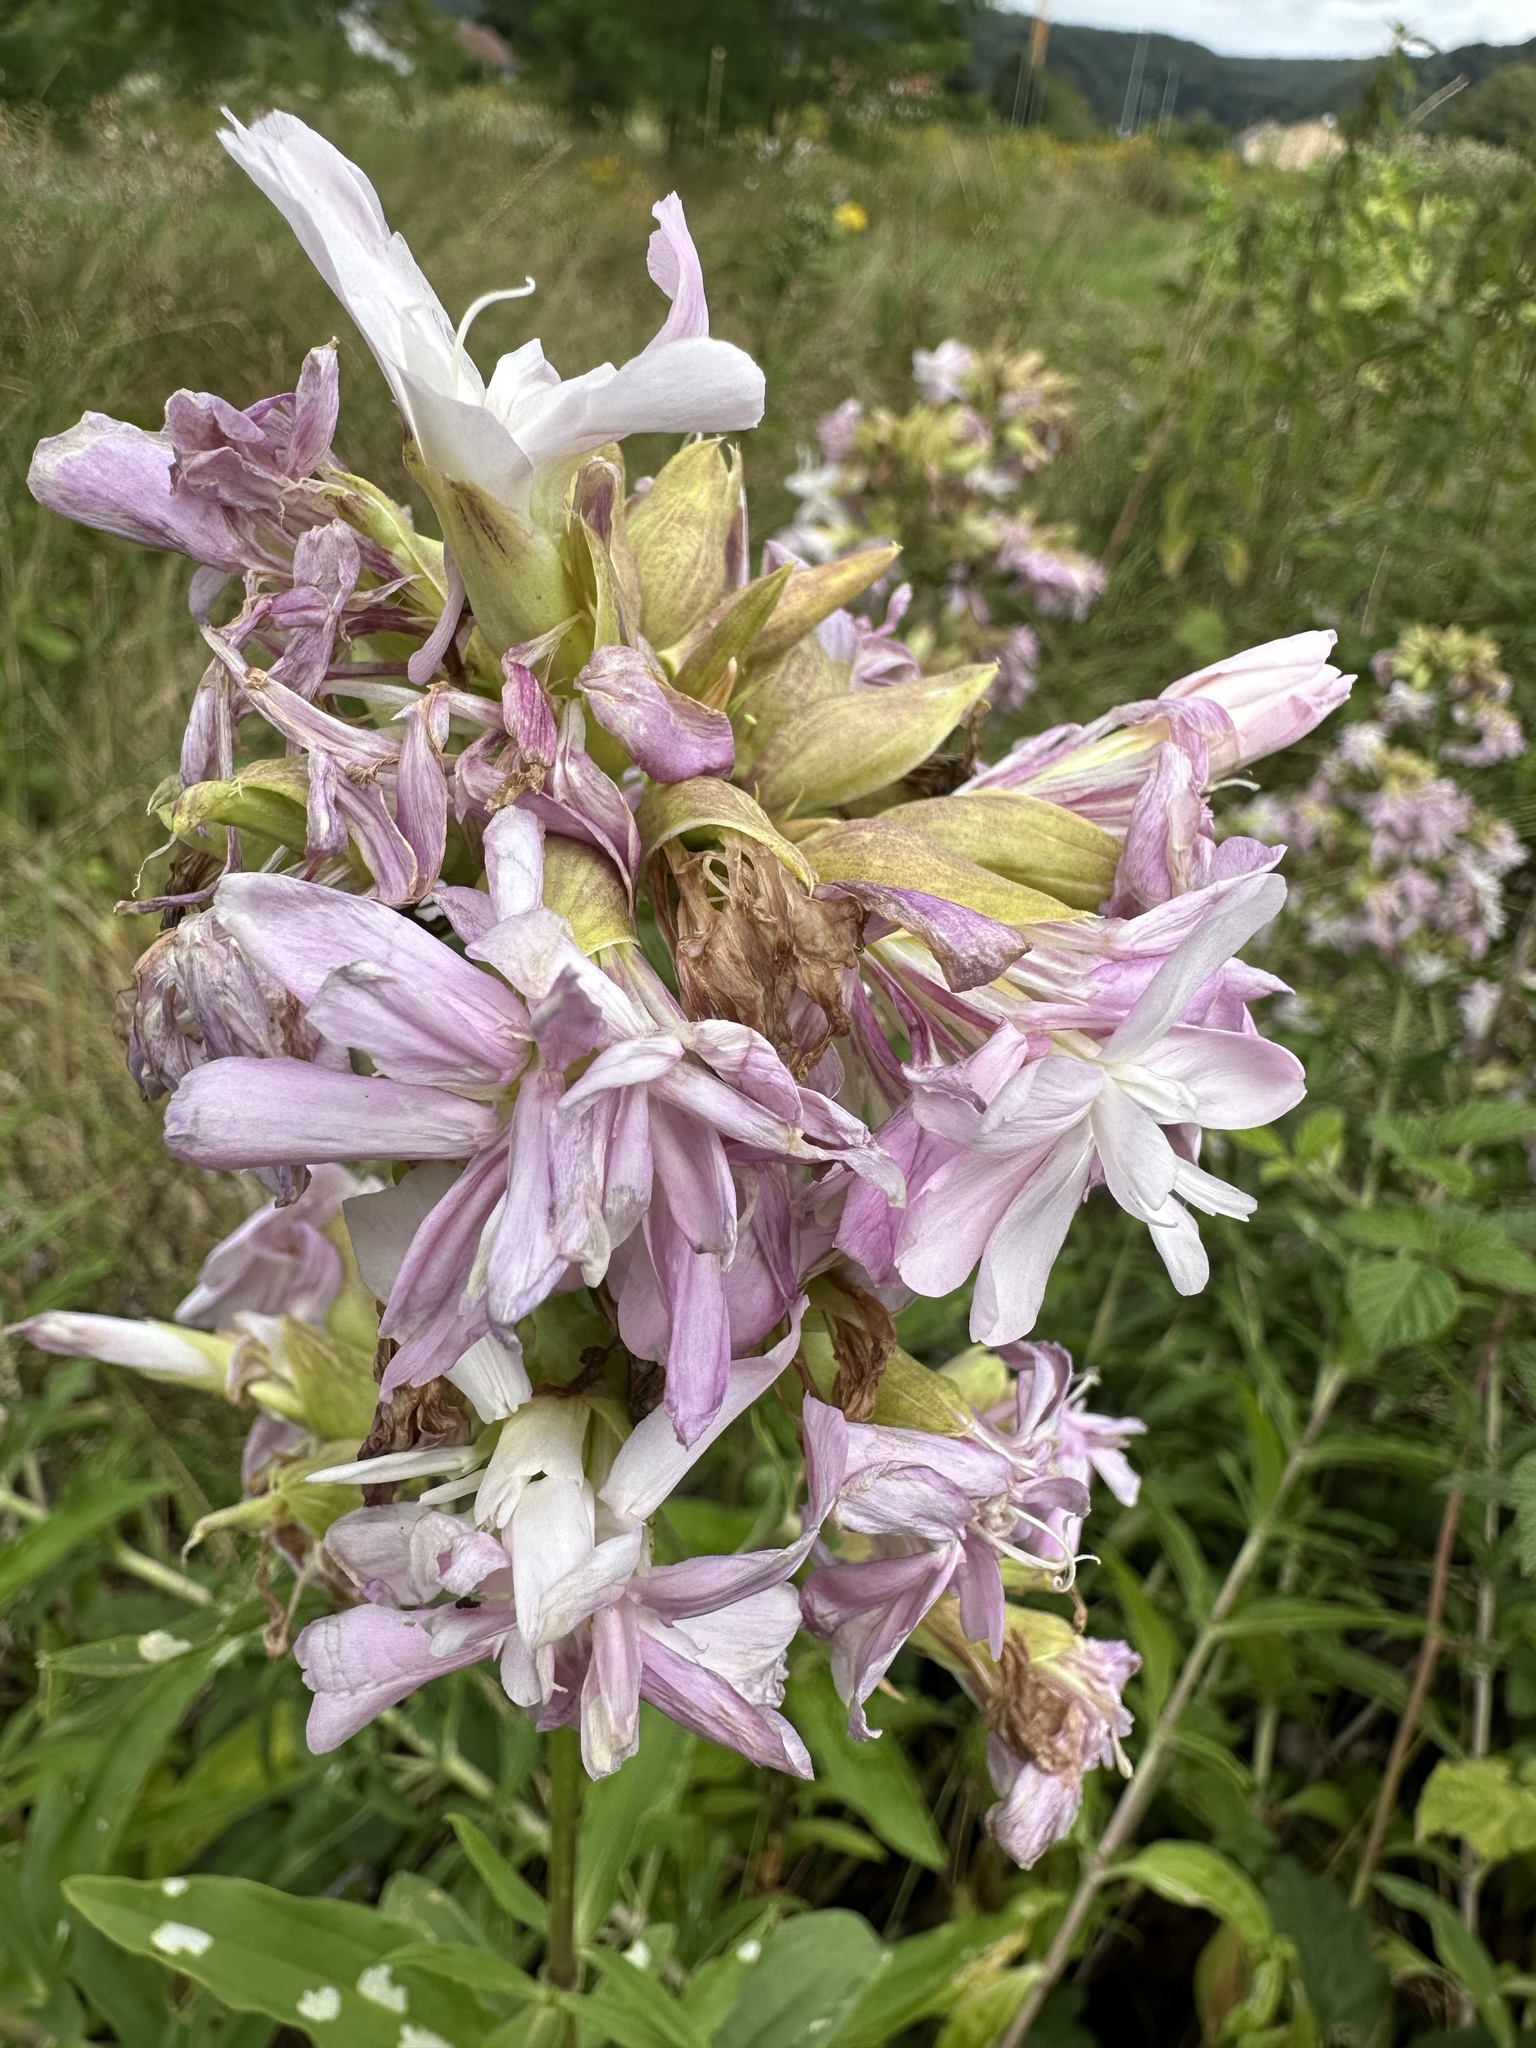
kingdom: Plantae
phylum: Tracheophyta
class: Magnoliopsida
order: Caryophyllales
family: Caryophyllaceae
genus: Saponaria
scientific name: Saponaria officinalis
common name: Soapwort
